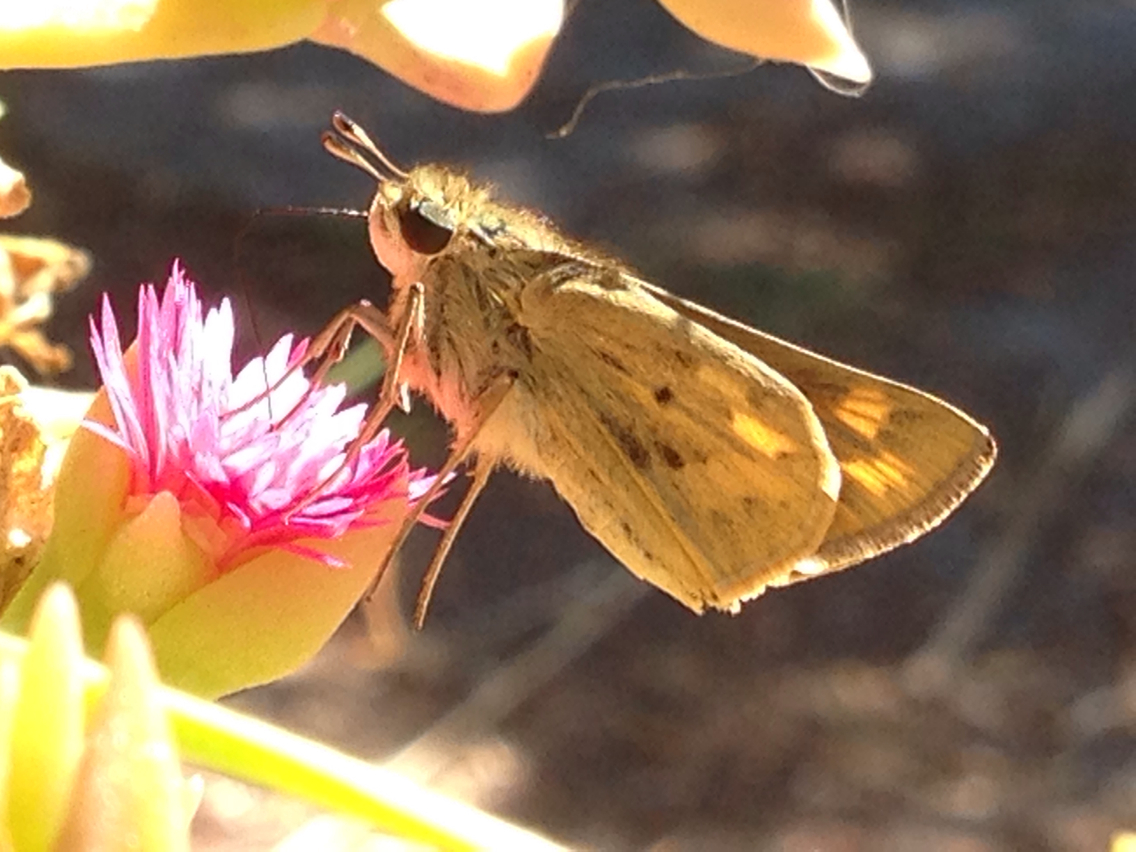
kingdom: Animalia
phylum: Arthropoda
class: Insecta
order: Lepidoptera
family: Hesperiidae
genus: Hylephila
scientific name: Hylephila phyleus
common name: Fiery skipper
